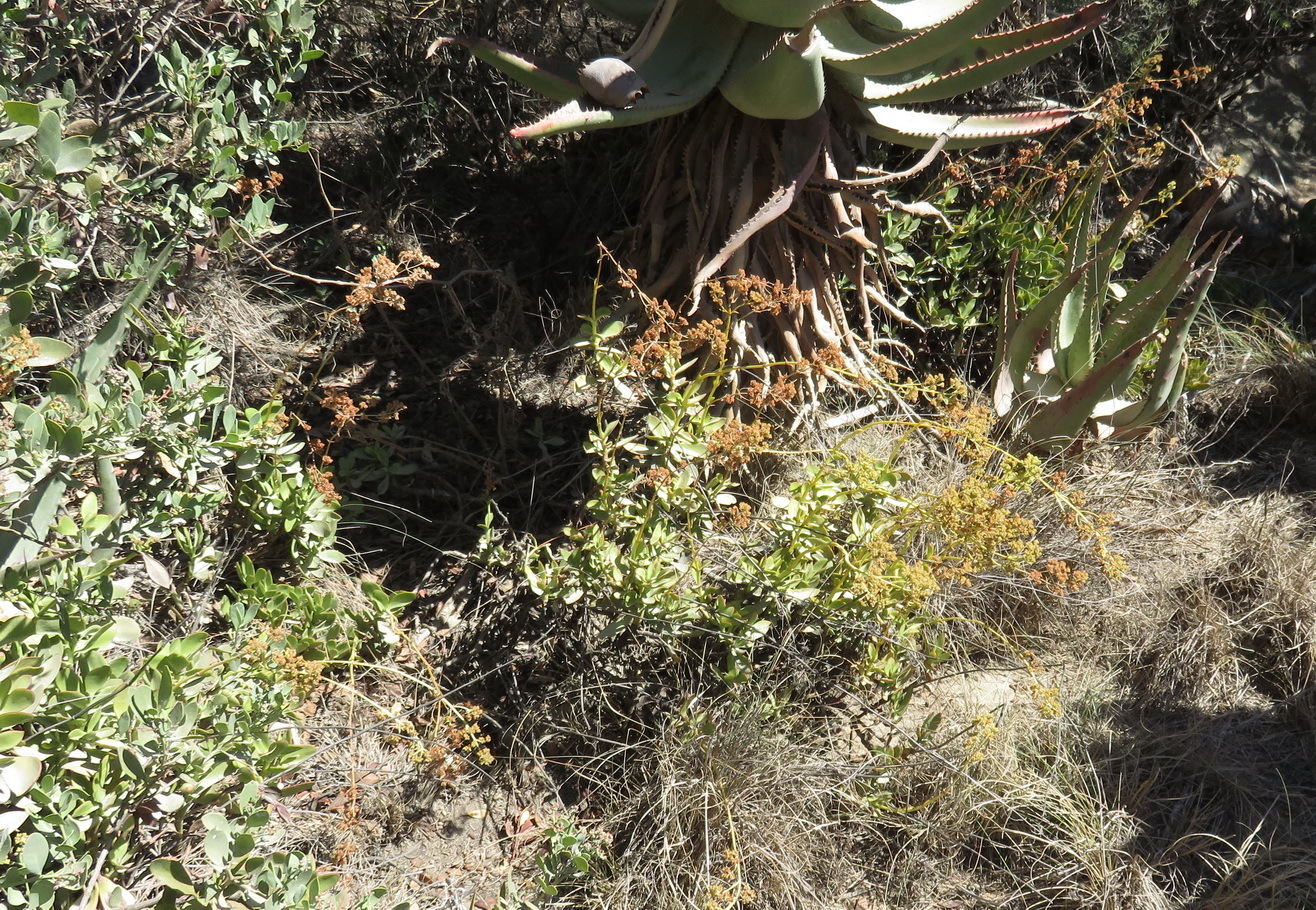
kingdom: Plantae
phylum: Tracheophyta
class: Magnoliopsida
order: Saxifragales
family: Crassulaceae
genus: Crassula
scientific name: Crassula cultrata
